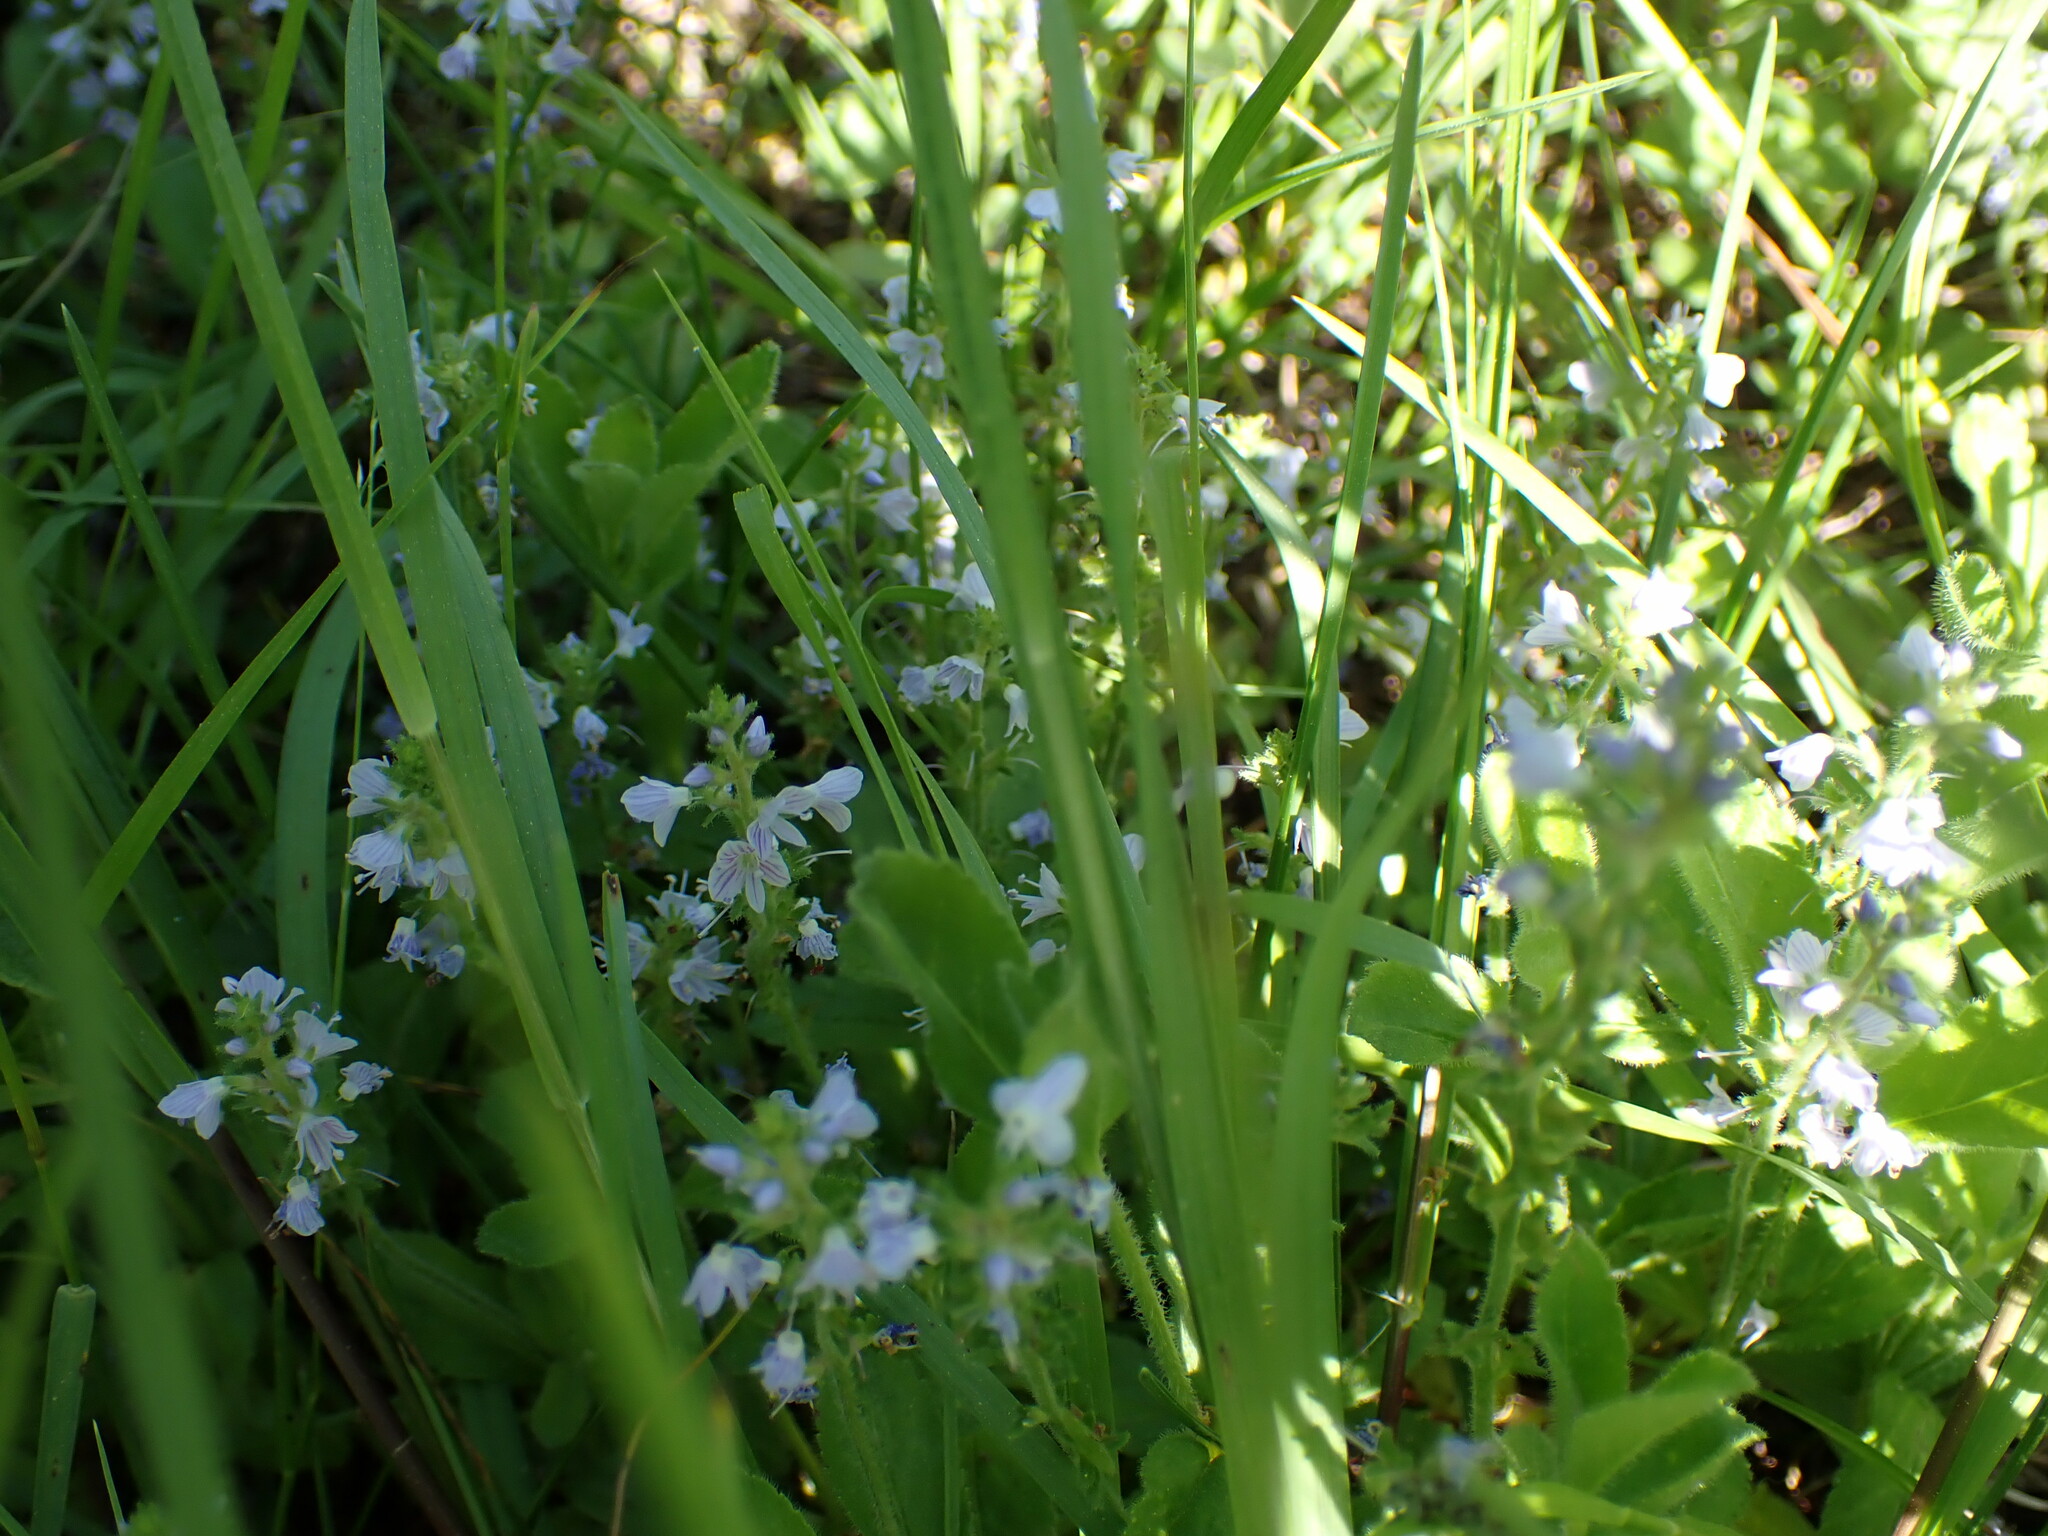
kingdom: Plantae
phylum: Tracheophyta
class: Magnoliopsida
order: Lamiales
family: Plantaginaceae
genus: Veronica
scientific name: Veronica officinalis
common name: Common speedwell
